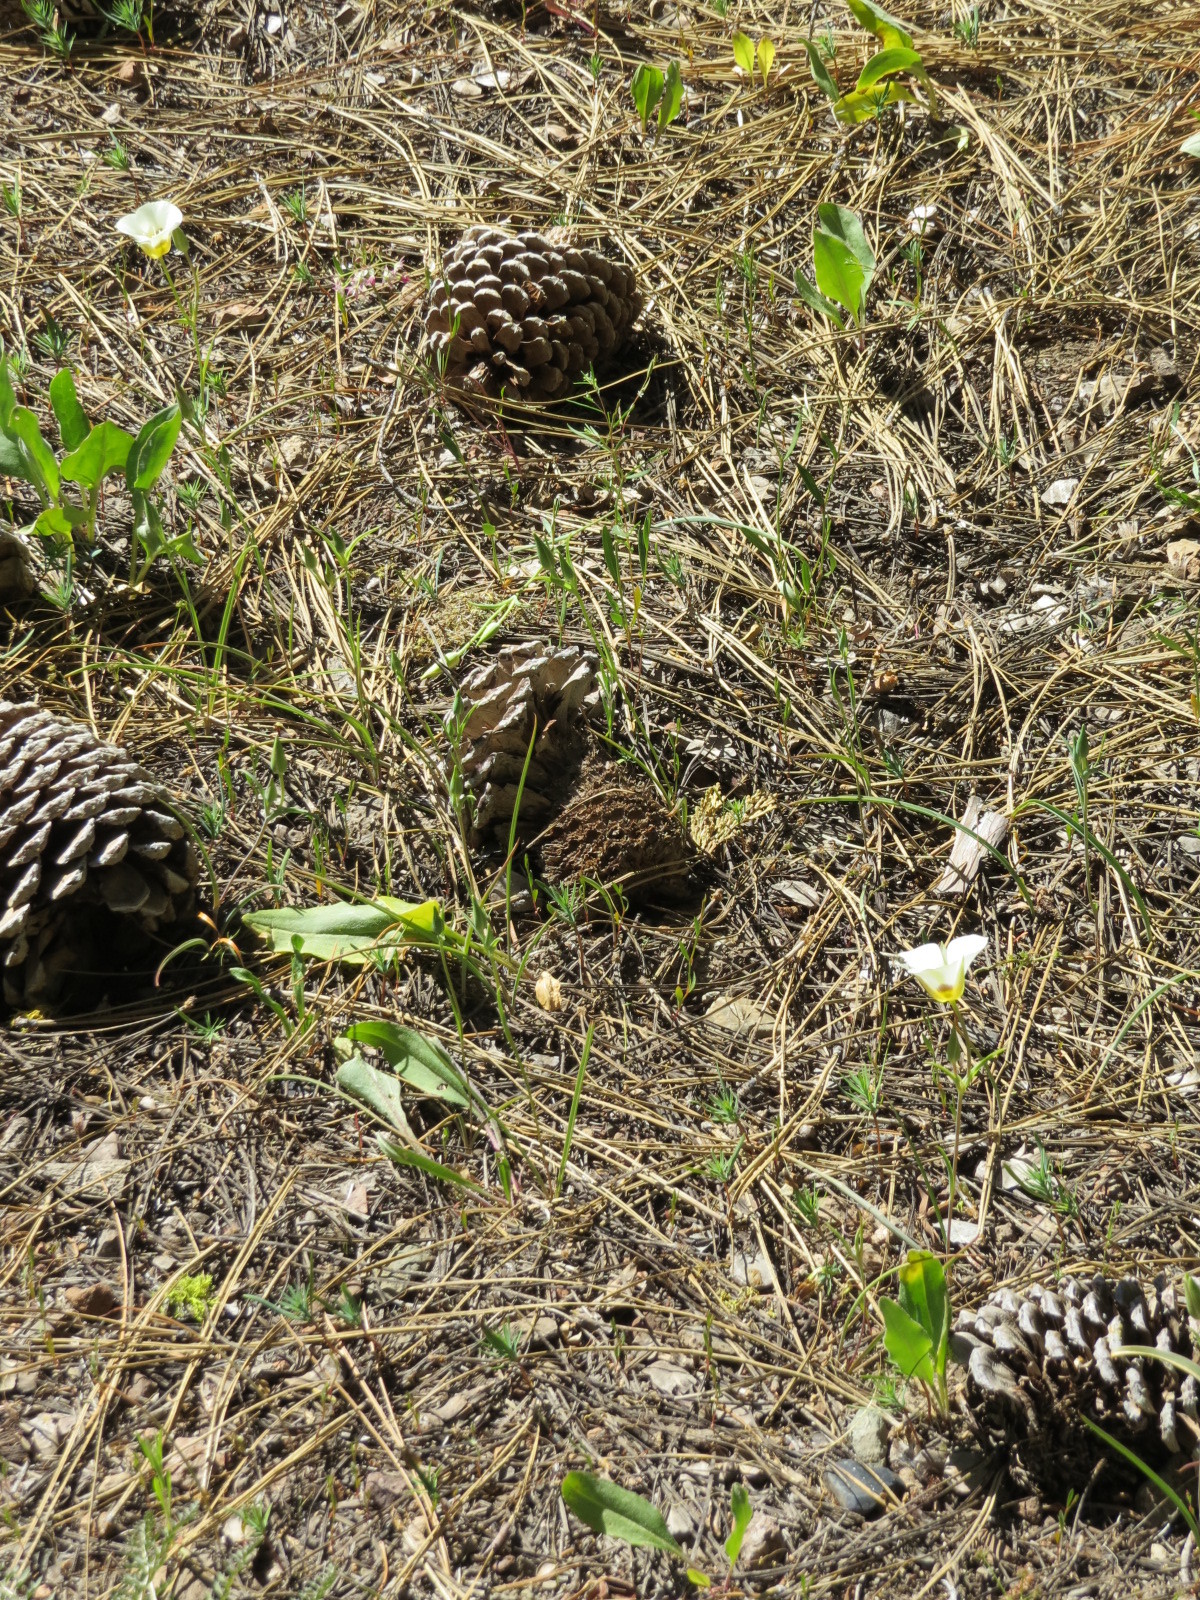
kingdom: Plantae
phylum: Tracheophyta
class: Liliopsida
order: Liliales
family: Liliaceae
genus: Calochortus
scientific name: Calochortus leichtlinii
